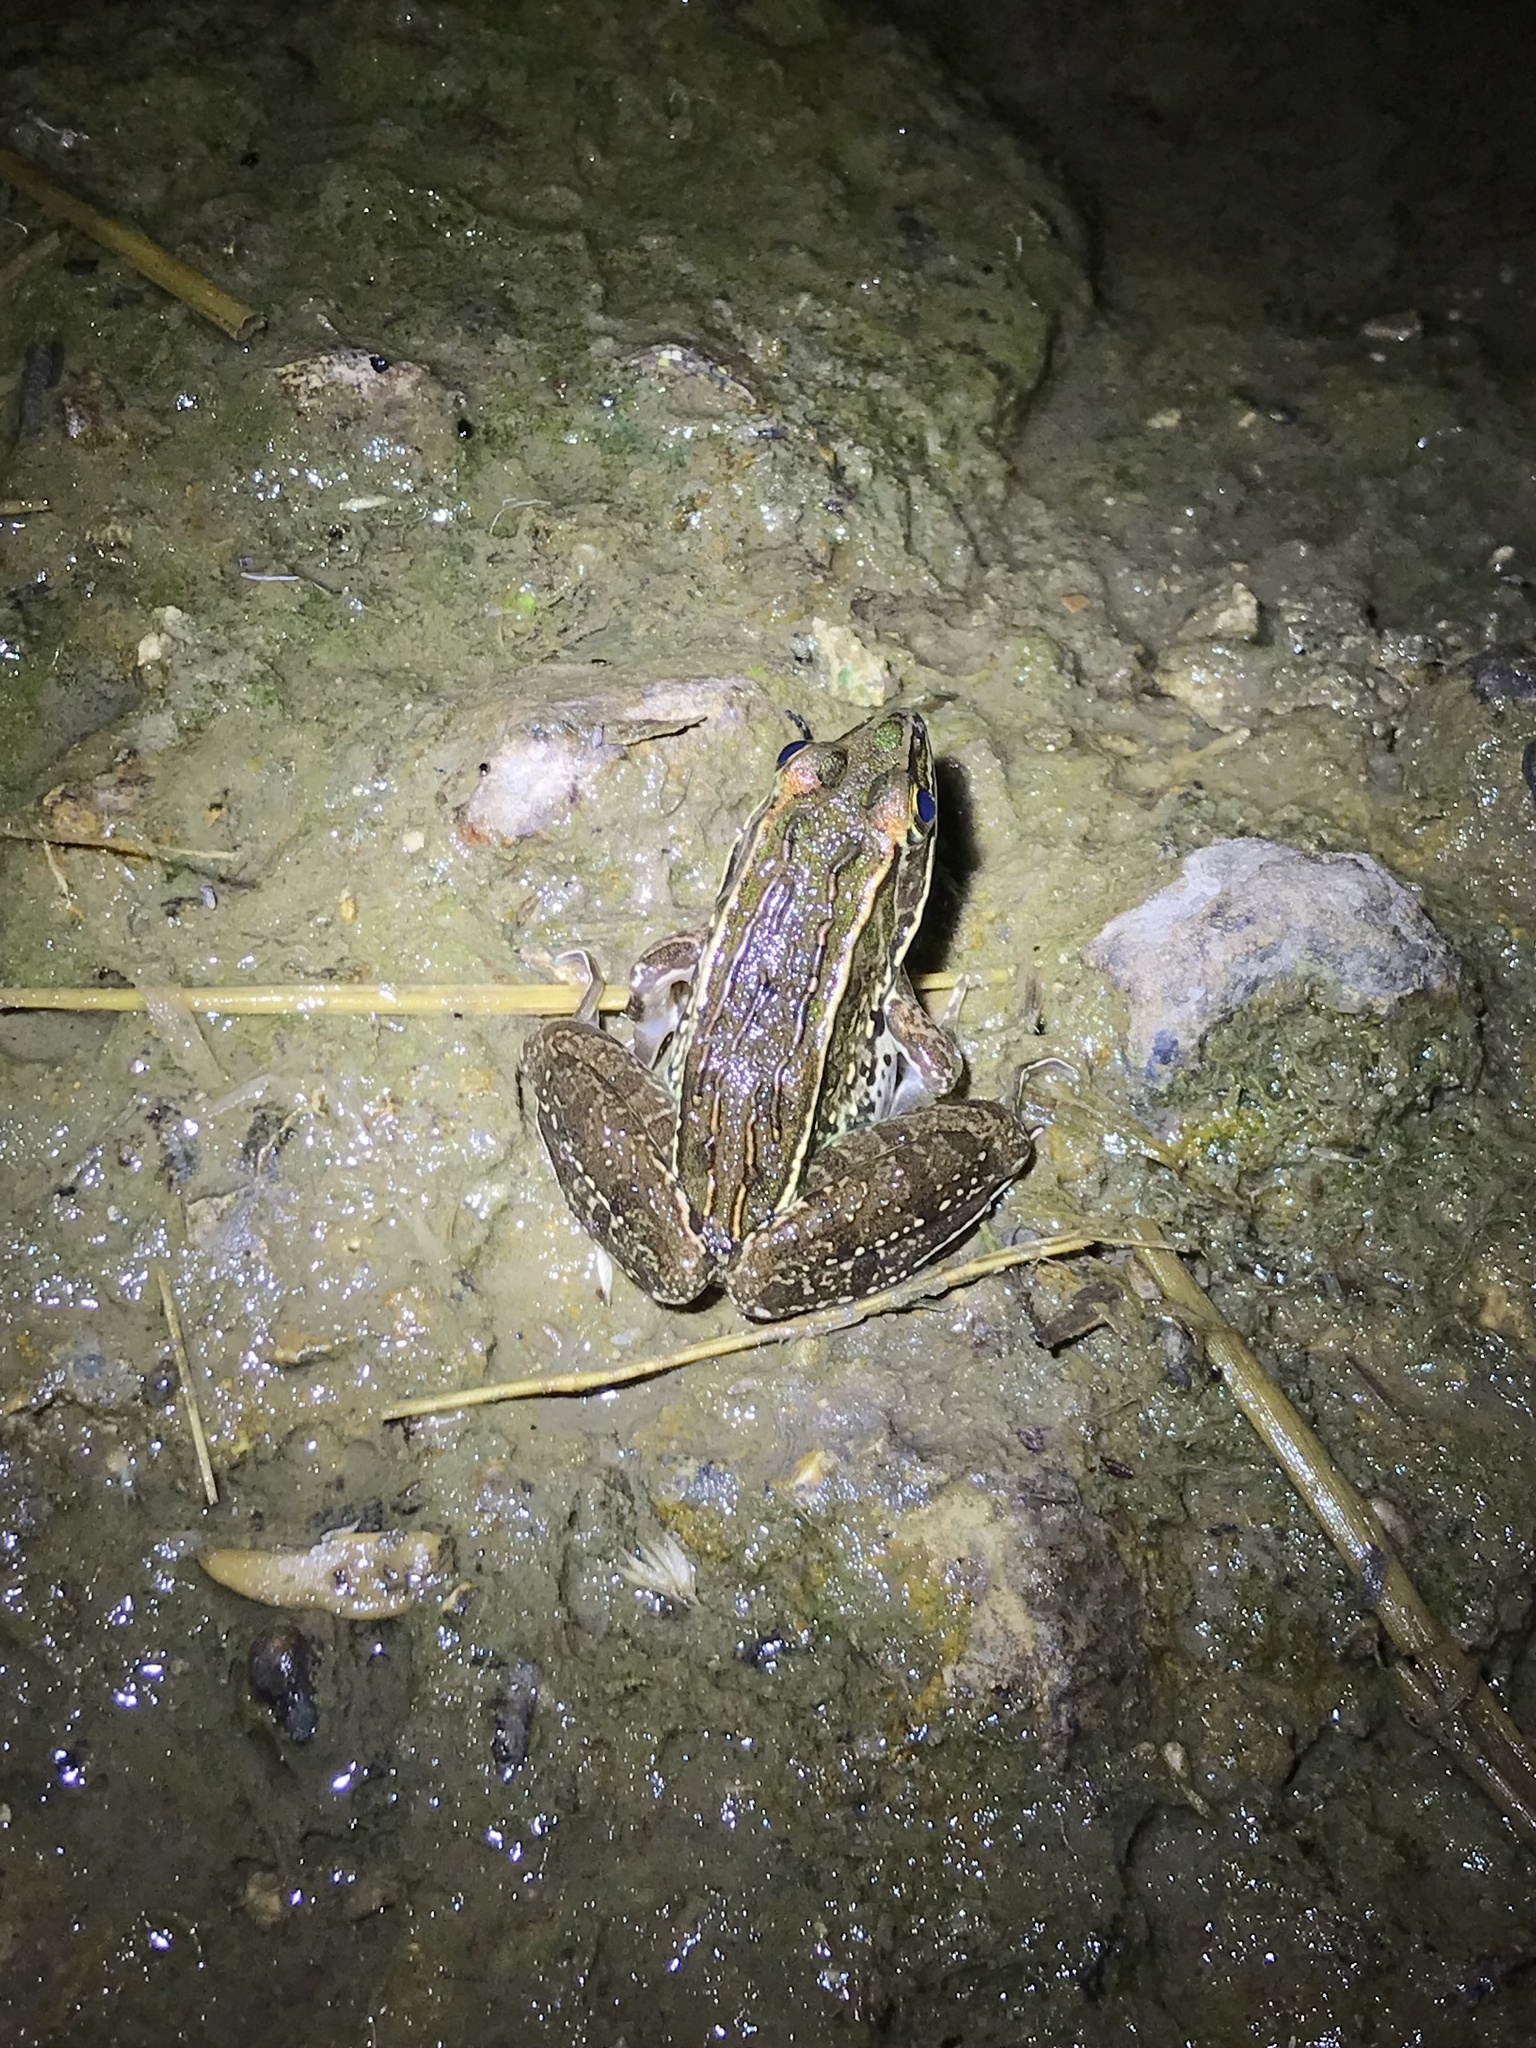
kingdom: Animalia
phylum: Chordata
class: Amphibia
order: Anura
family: Ranidae
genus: Lithobates
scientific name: Lithobates pipiens
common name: Northern leopard frog
